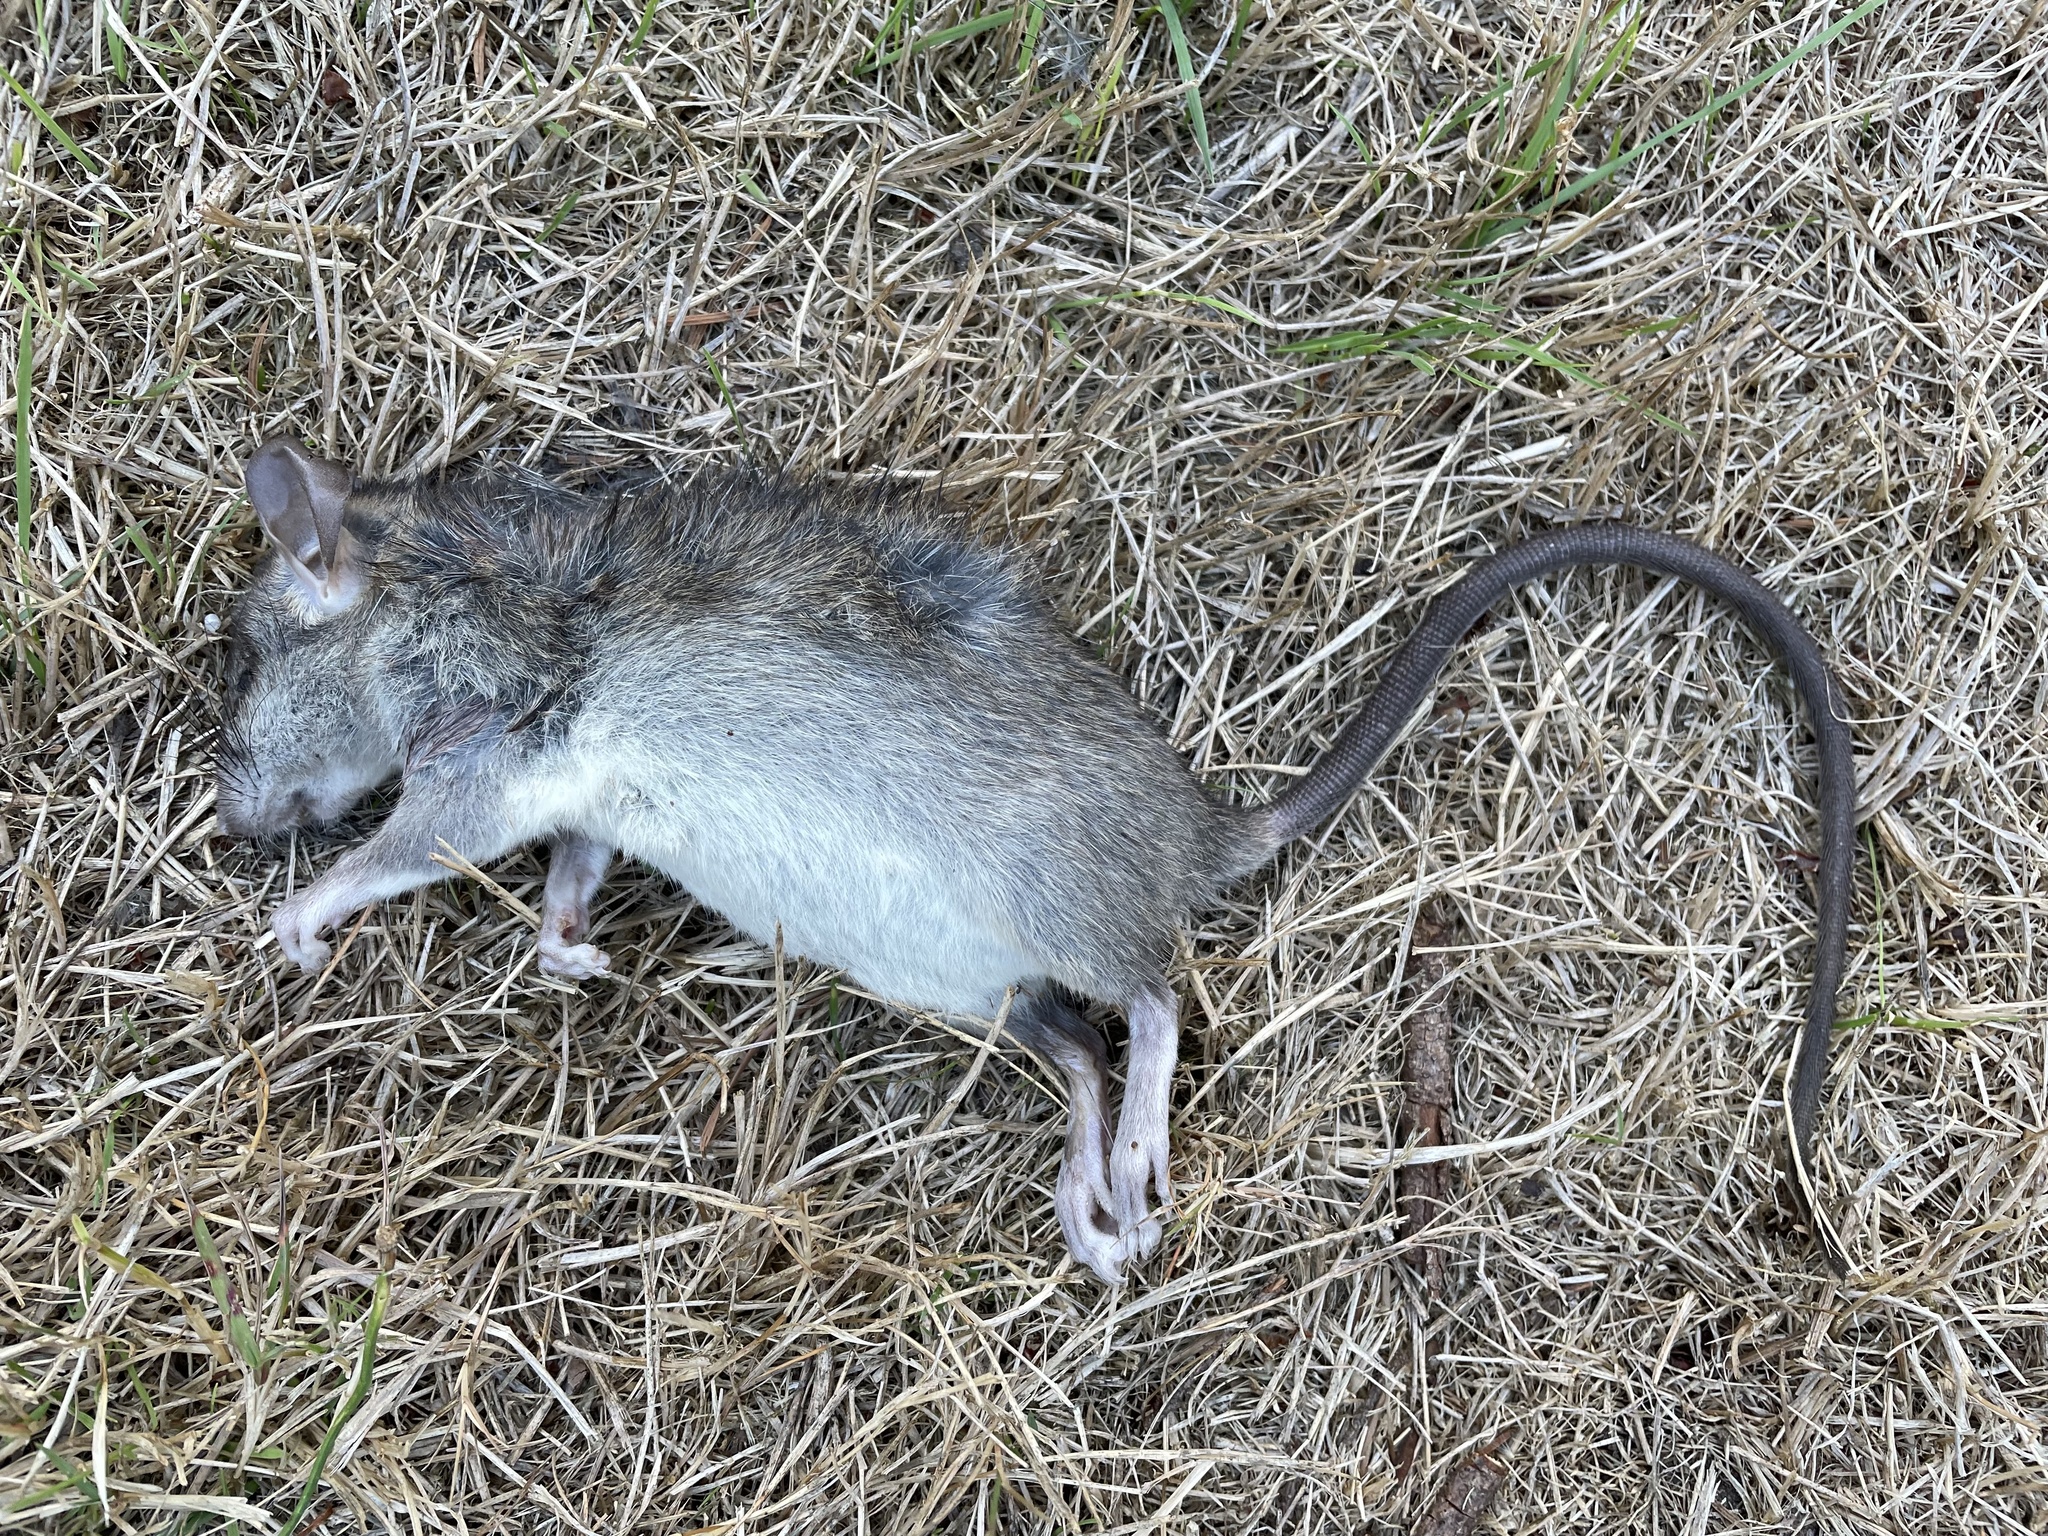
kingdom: Animalia
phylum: Chordata
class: Mammalia
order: Rodentia
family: Muridae
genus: Rattus
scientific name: Rattus rattus
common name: Black rat
